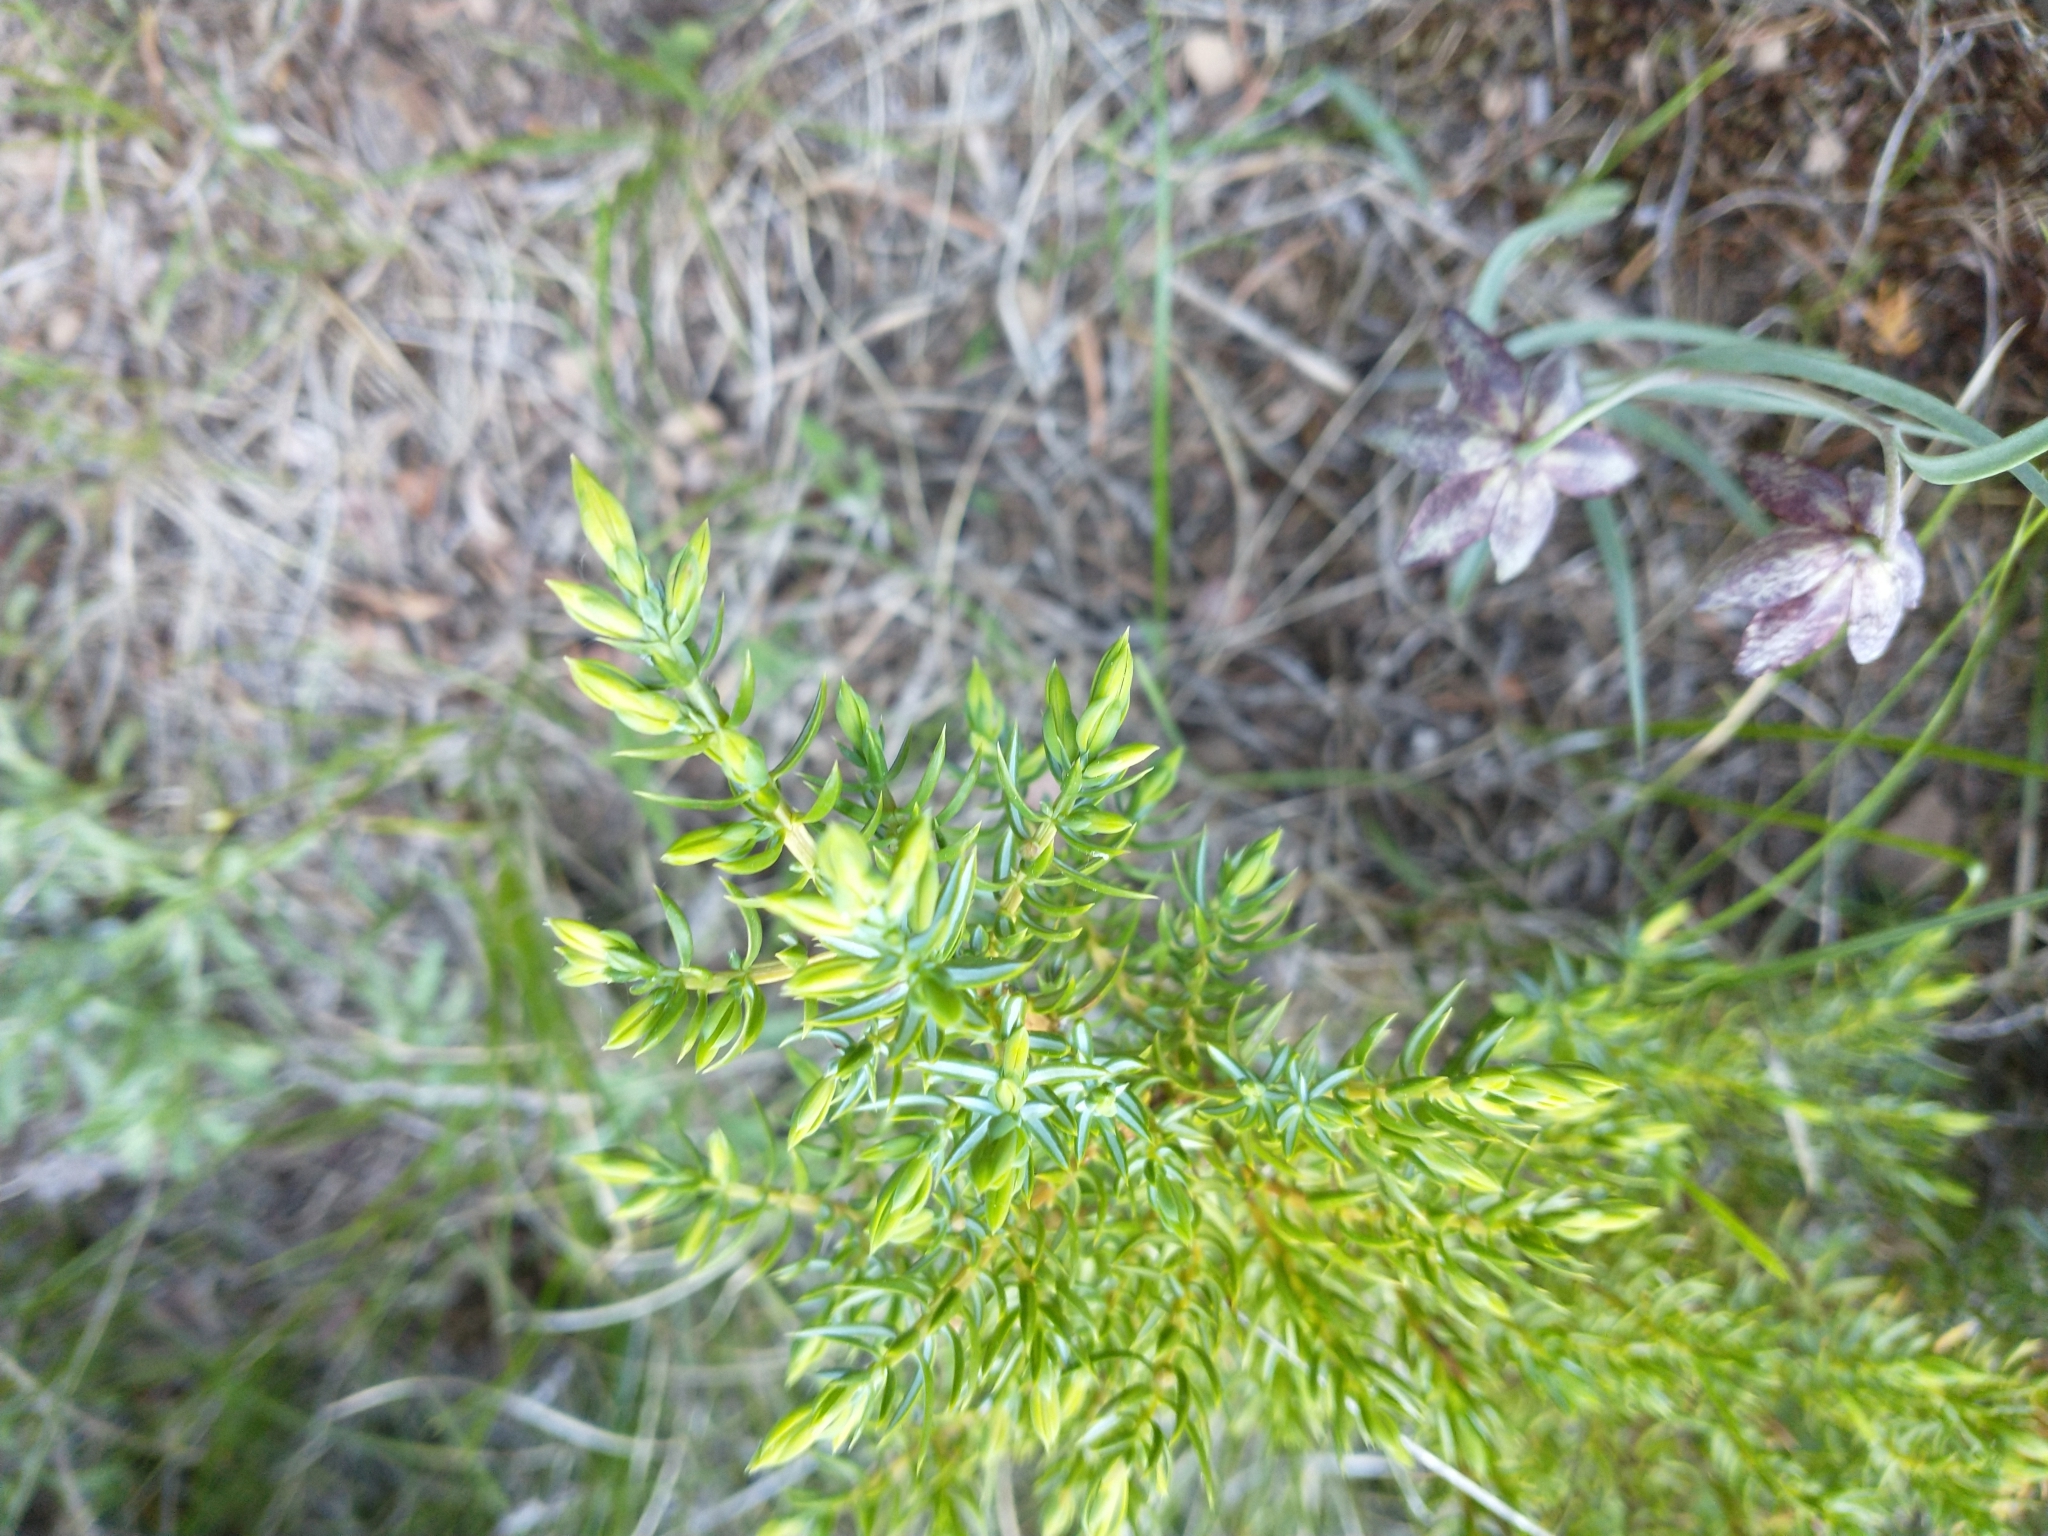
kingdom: Plantae
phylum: Tracheophyta
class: Pinopsida
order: Pinales
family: Cupressaceae
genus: Juniperus
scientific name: Juniperus communis
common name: Common juniper
